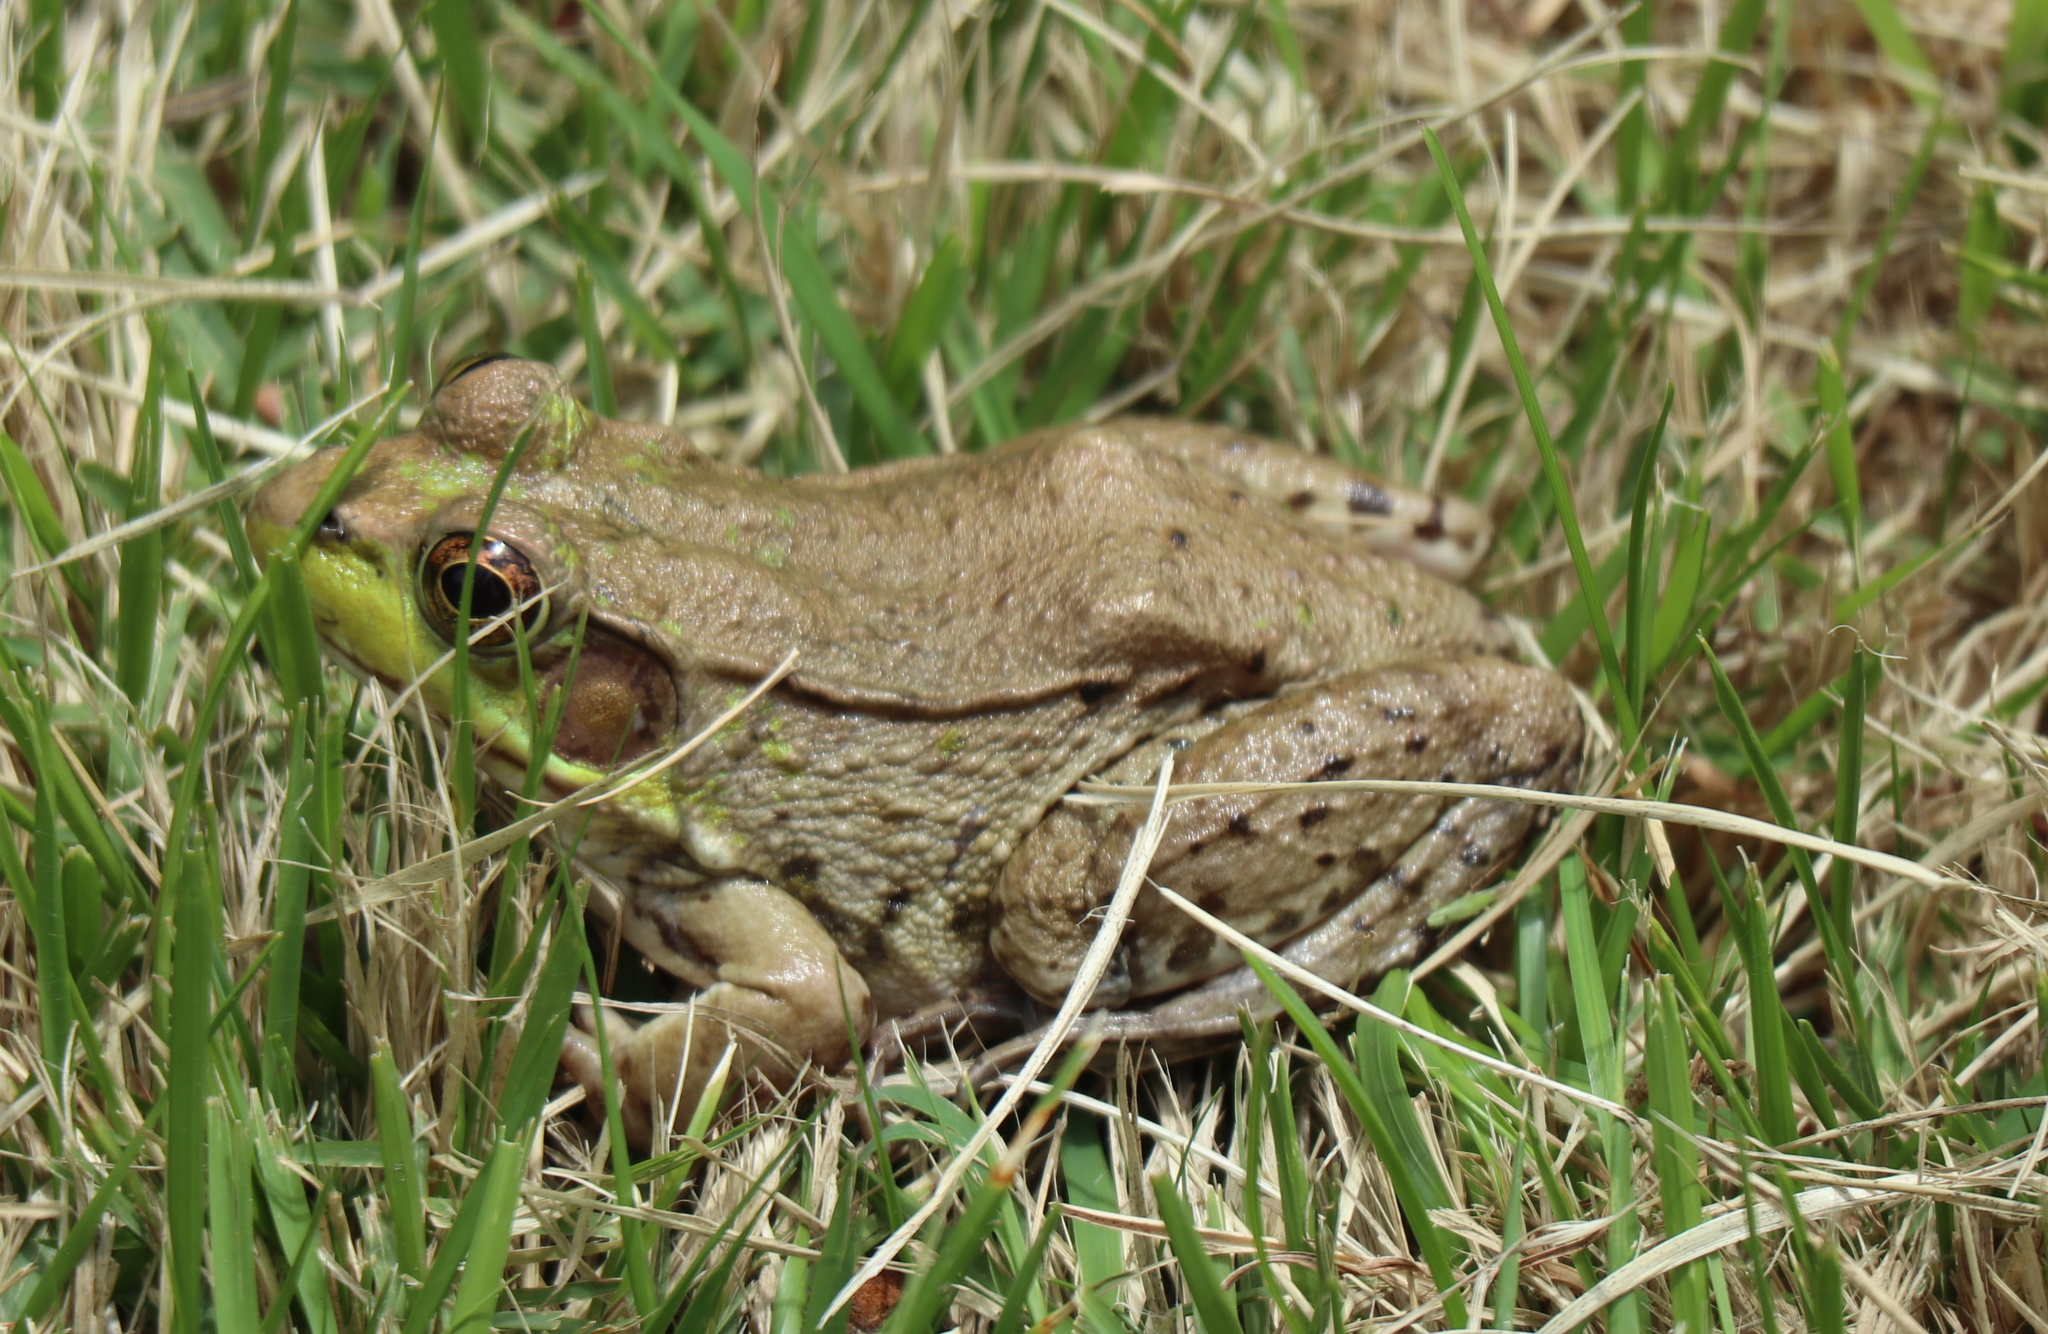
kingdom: Animalia
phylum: Chordata
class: Amphibia
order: Anura
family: Ranidae
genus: Lithobates
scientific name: Lithobates clamitans
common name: Green frog
